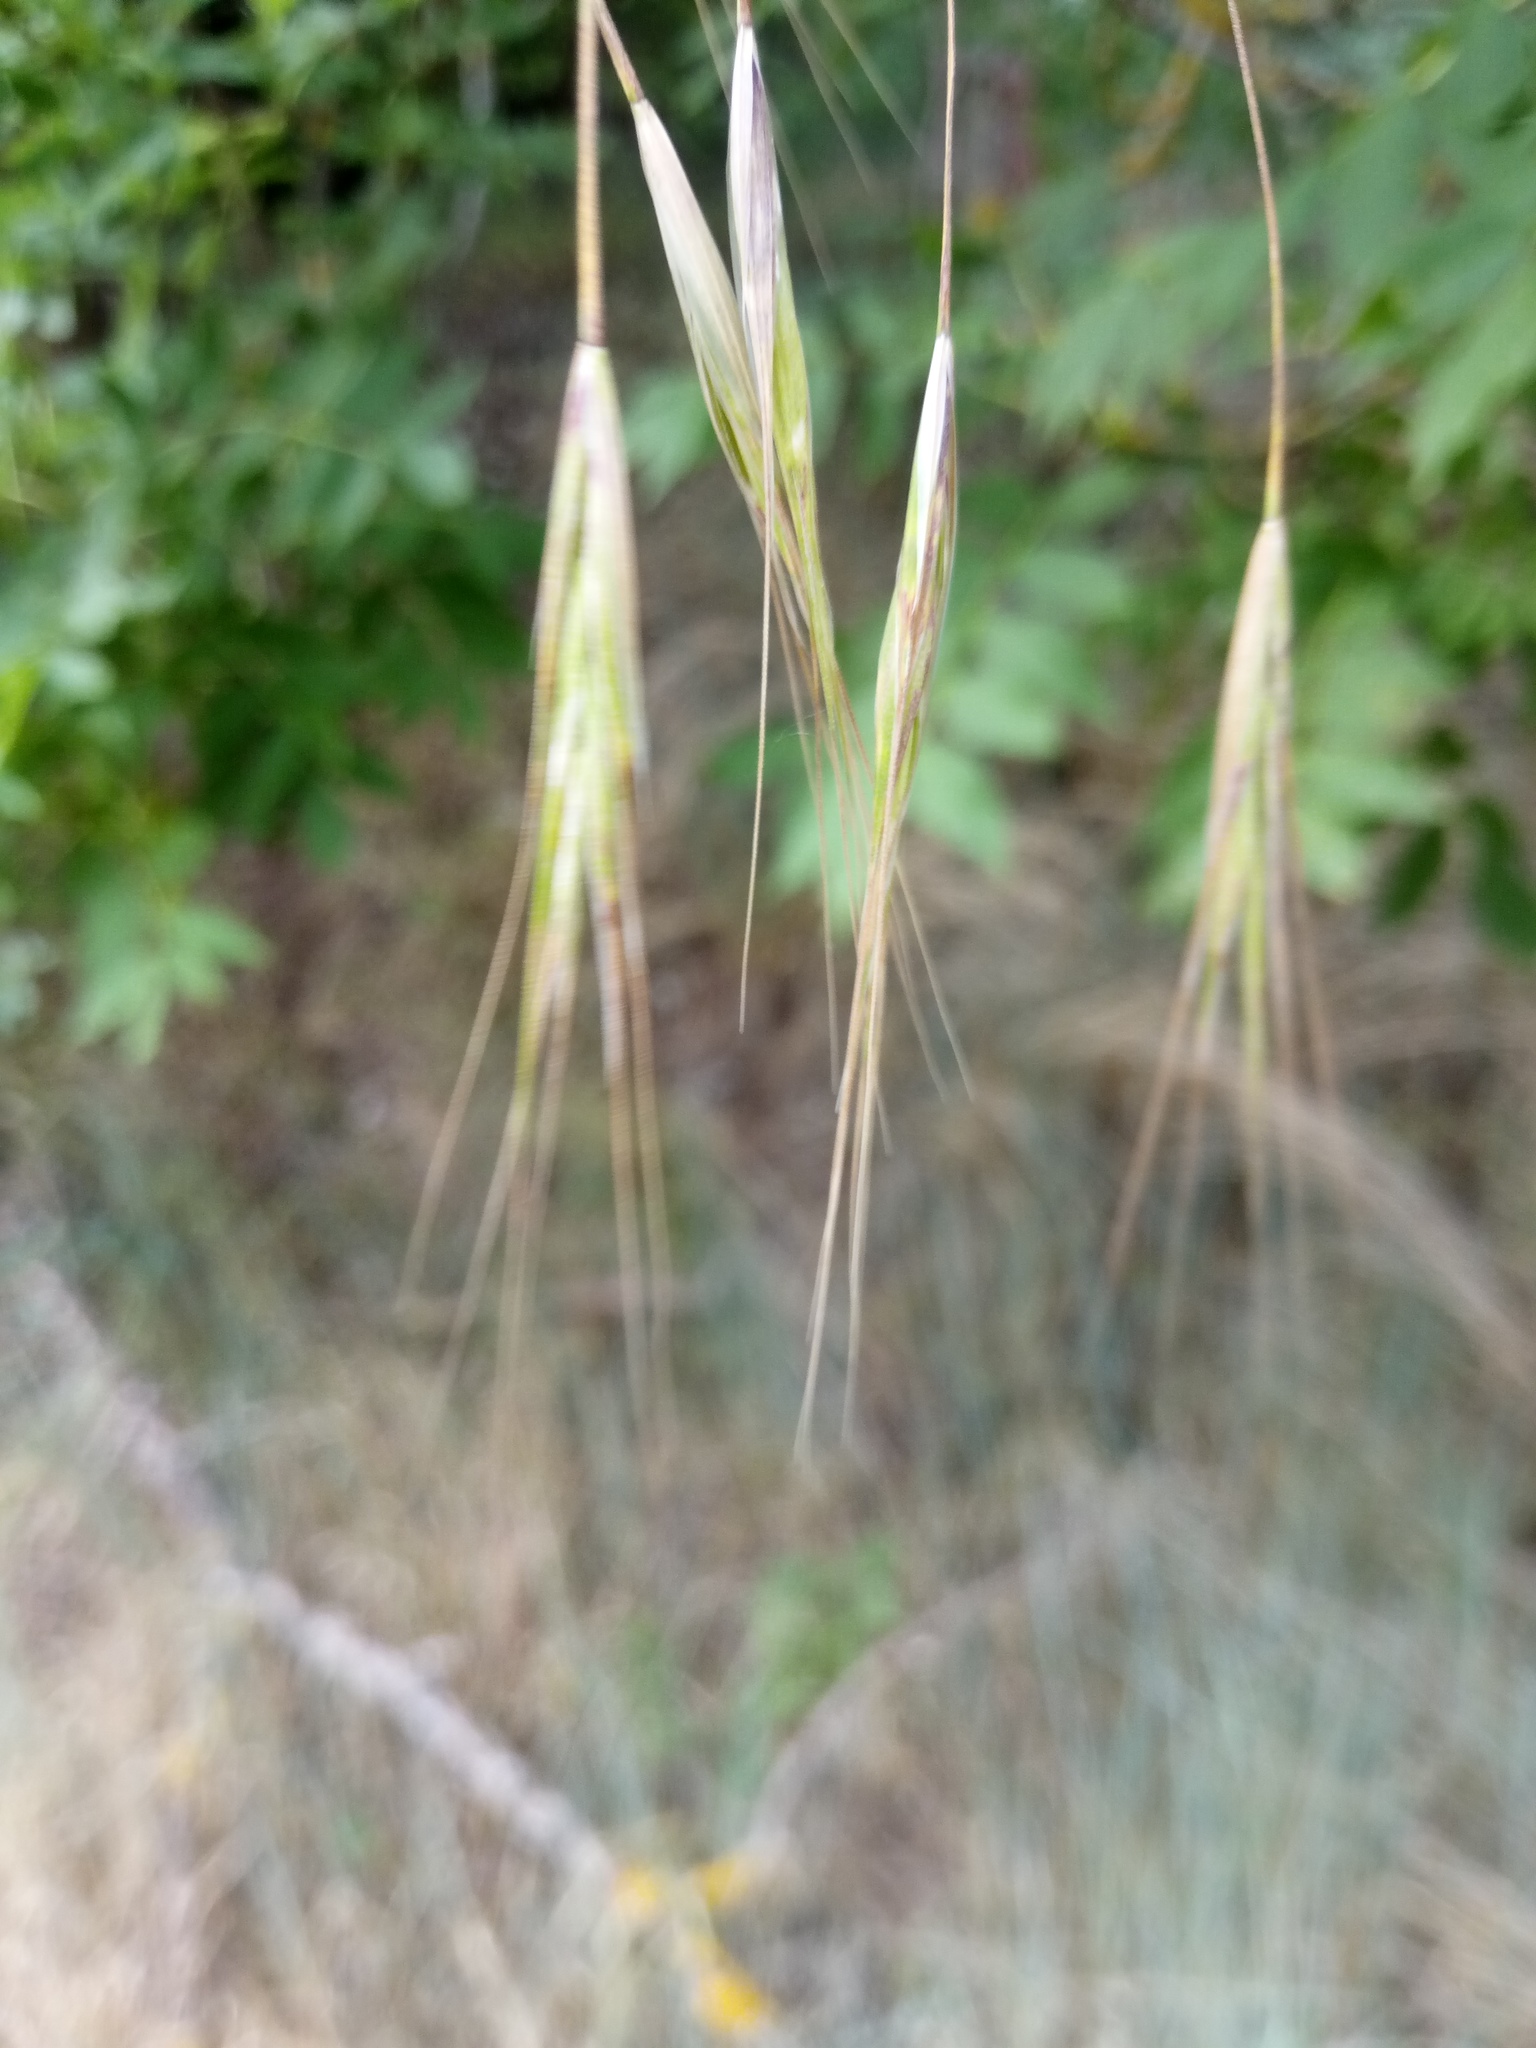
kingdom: Plantae
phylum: Tracheophyta
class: Liliopsida
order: Poales
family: Poaceae
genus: Bromus
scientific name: Bromus sterilis
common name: Poverty brome
